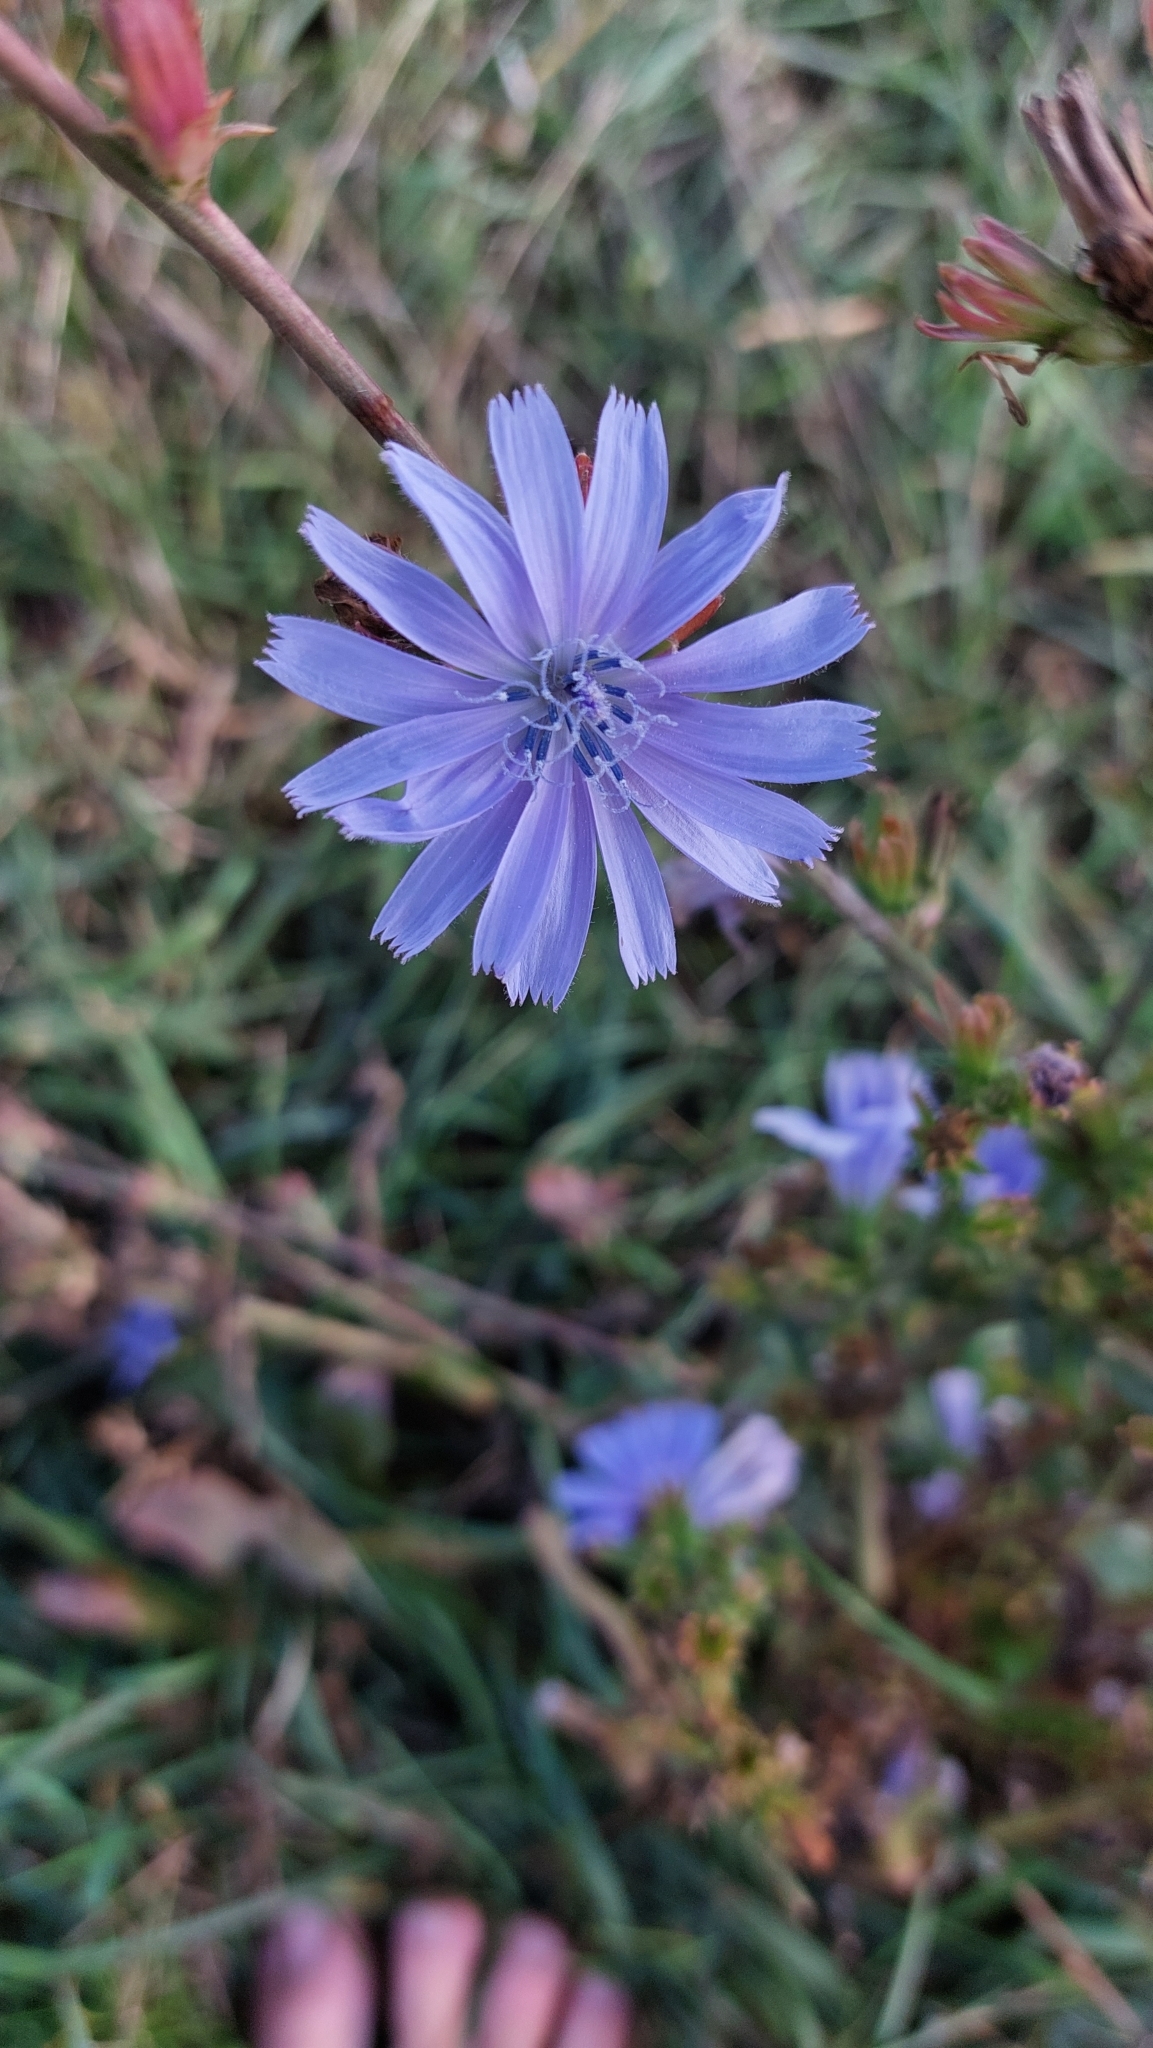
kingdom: Plantae
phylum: Tracheophyta
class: Magnoliopsida
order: Asterales
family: Asteraceae
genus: Cichorium
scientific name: Cichorium intybus
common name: Chicory
